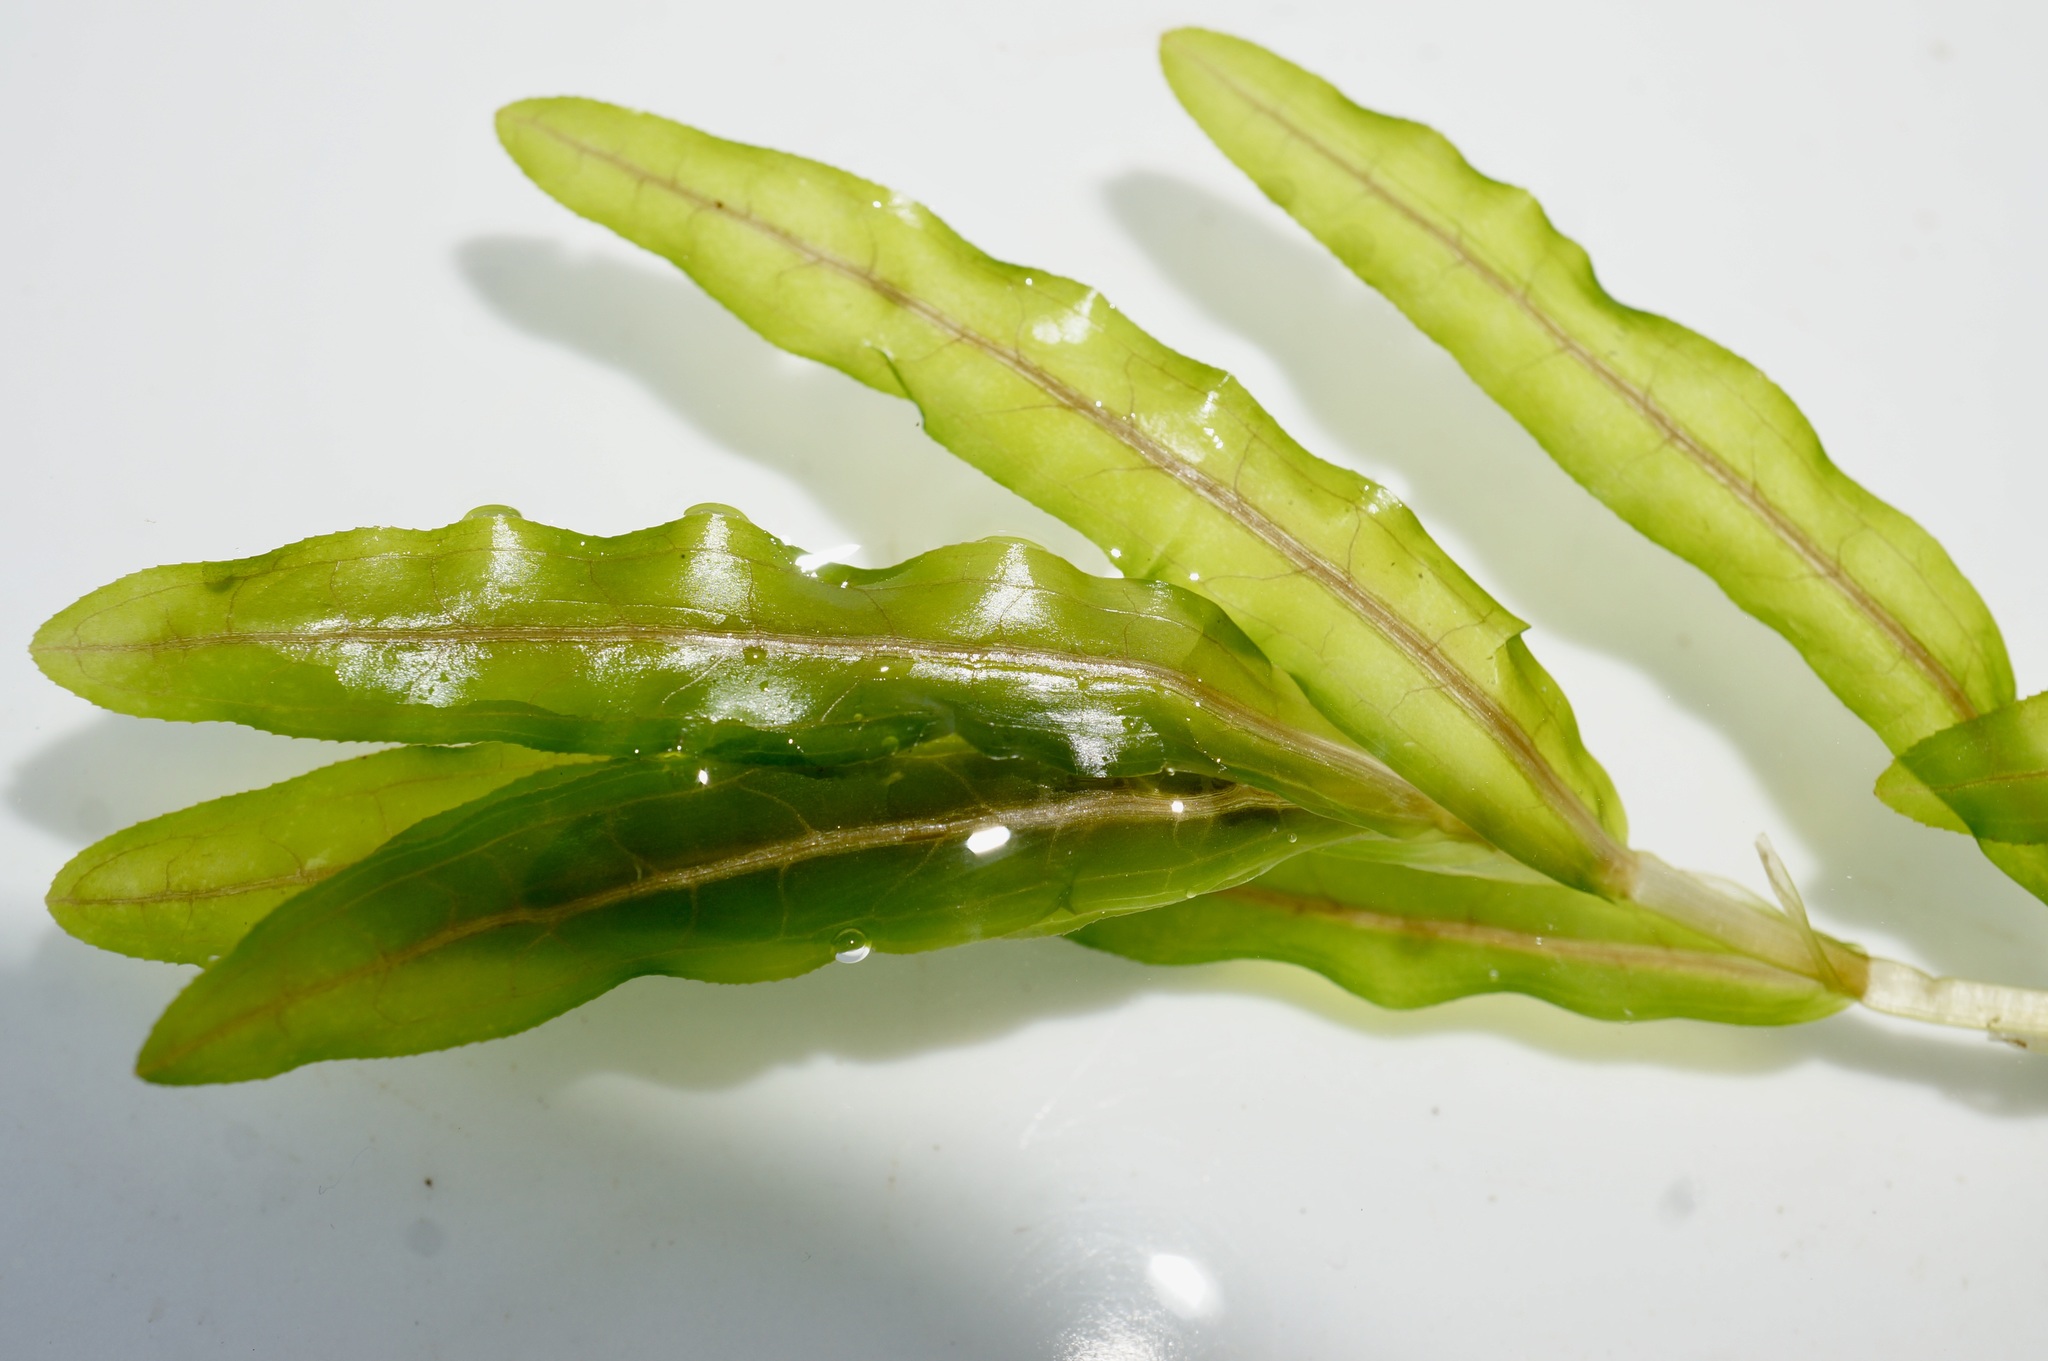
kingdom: Plantae
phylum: Tracheophyta
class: Liliopsida
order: Alismatales
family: Potamogetonaceae
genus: Potamogeton
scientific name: Potamogeton crispus
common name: Curled pondweed
